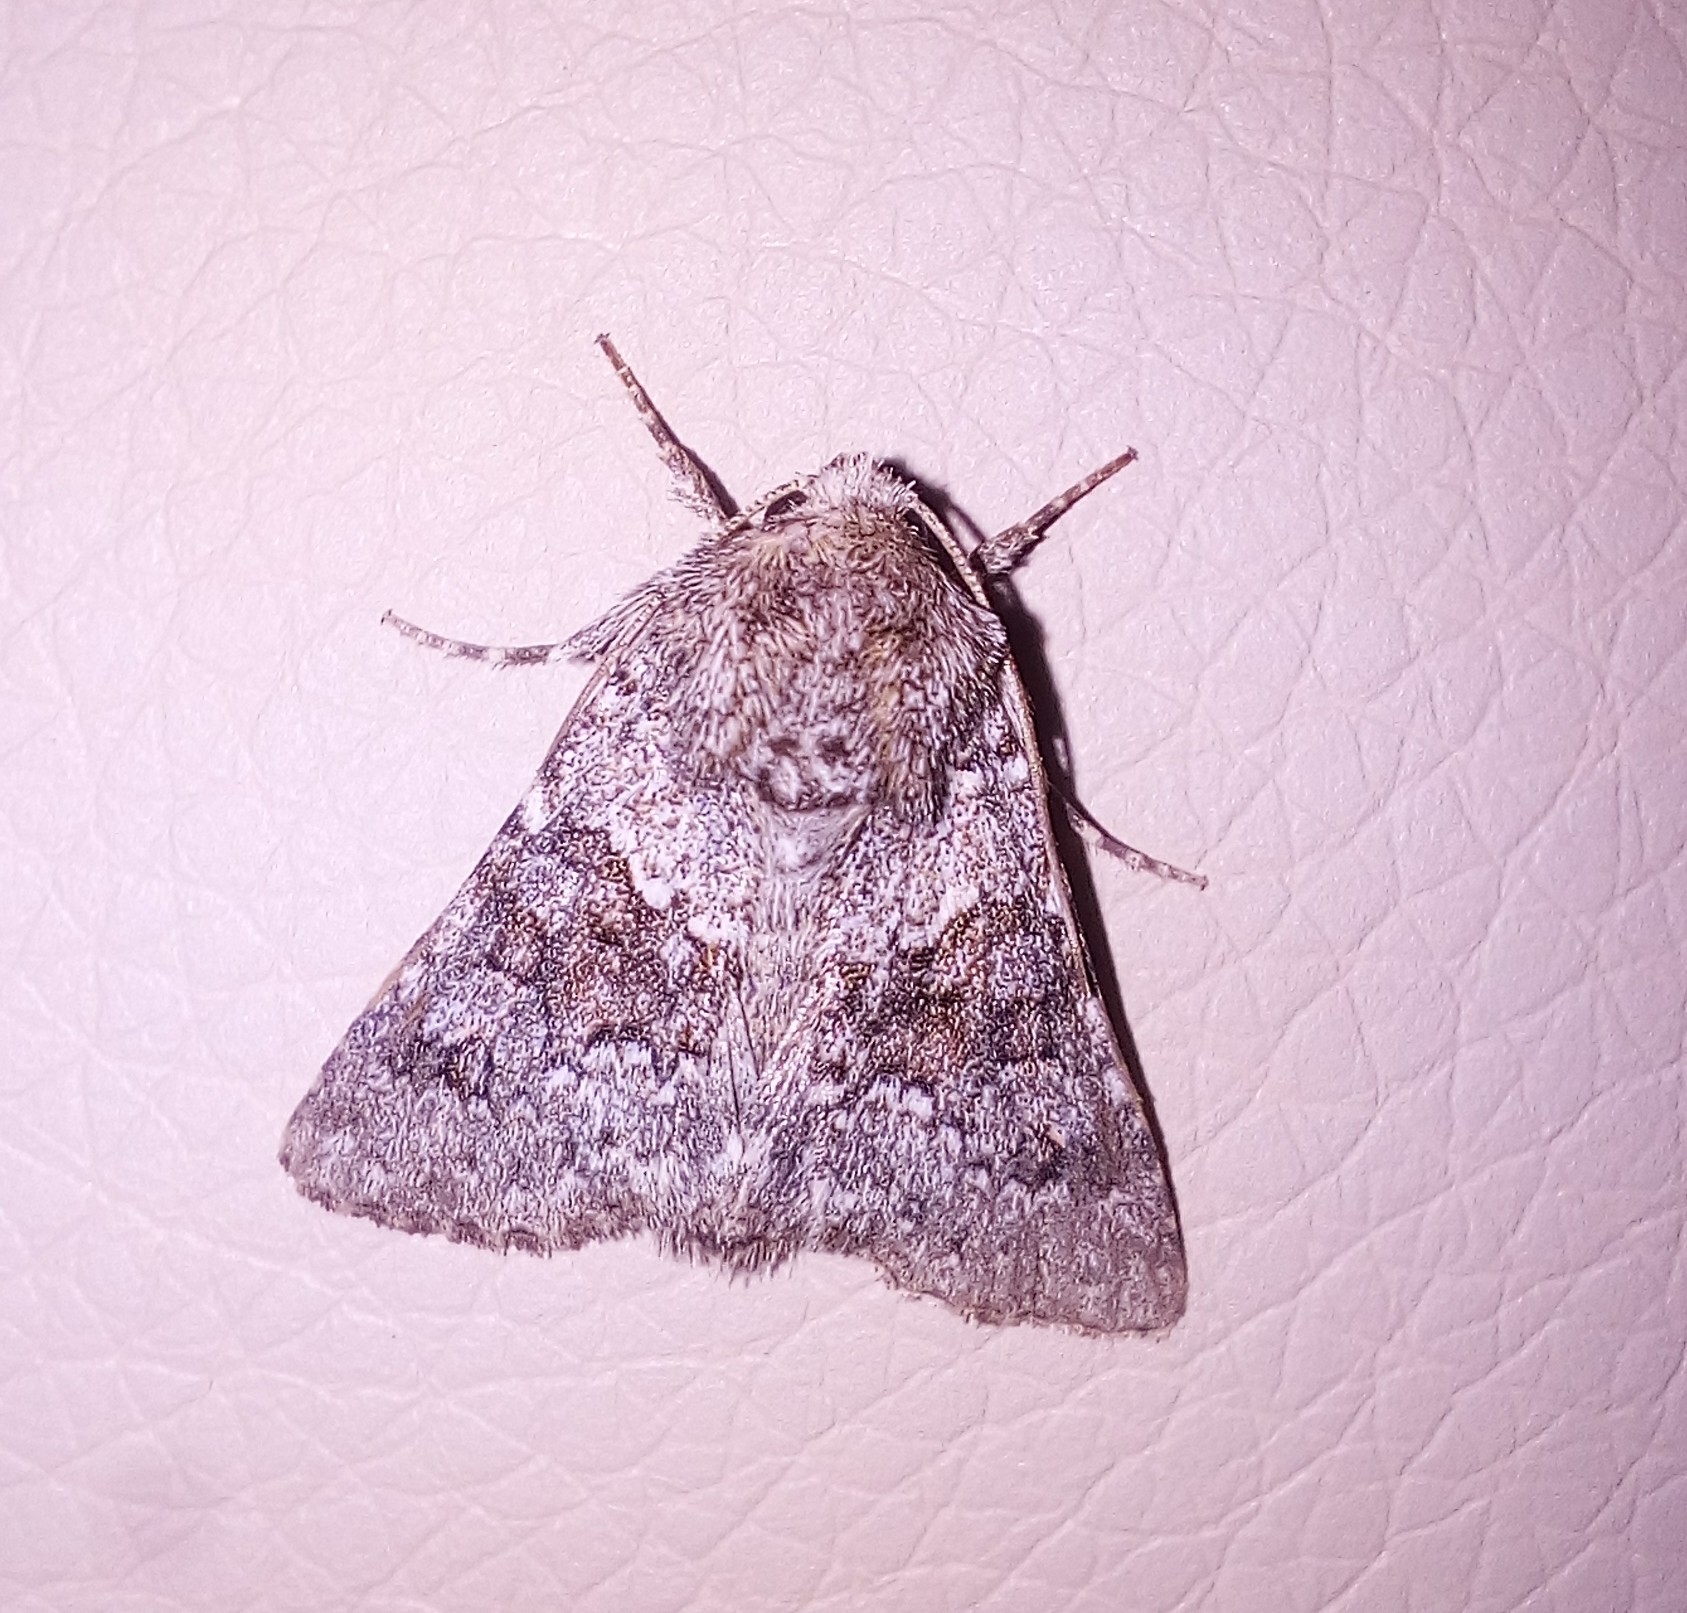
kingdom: Animalia
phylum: Arthropoda
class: Insecta
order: Lepidoptera
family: Noctuidae
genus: Hecatera
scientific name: Hecatera dysodea
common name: Small ranunculus
